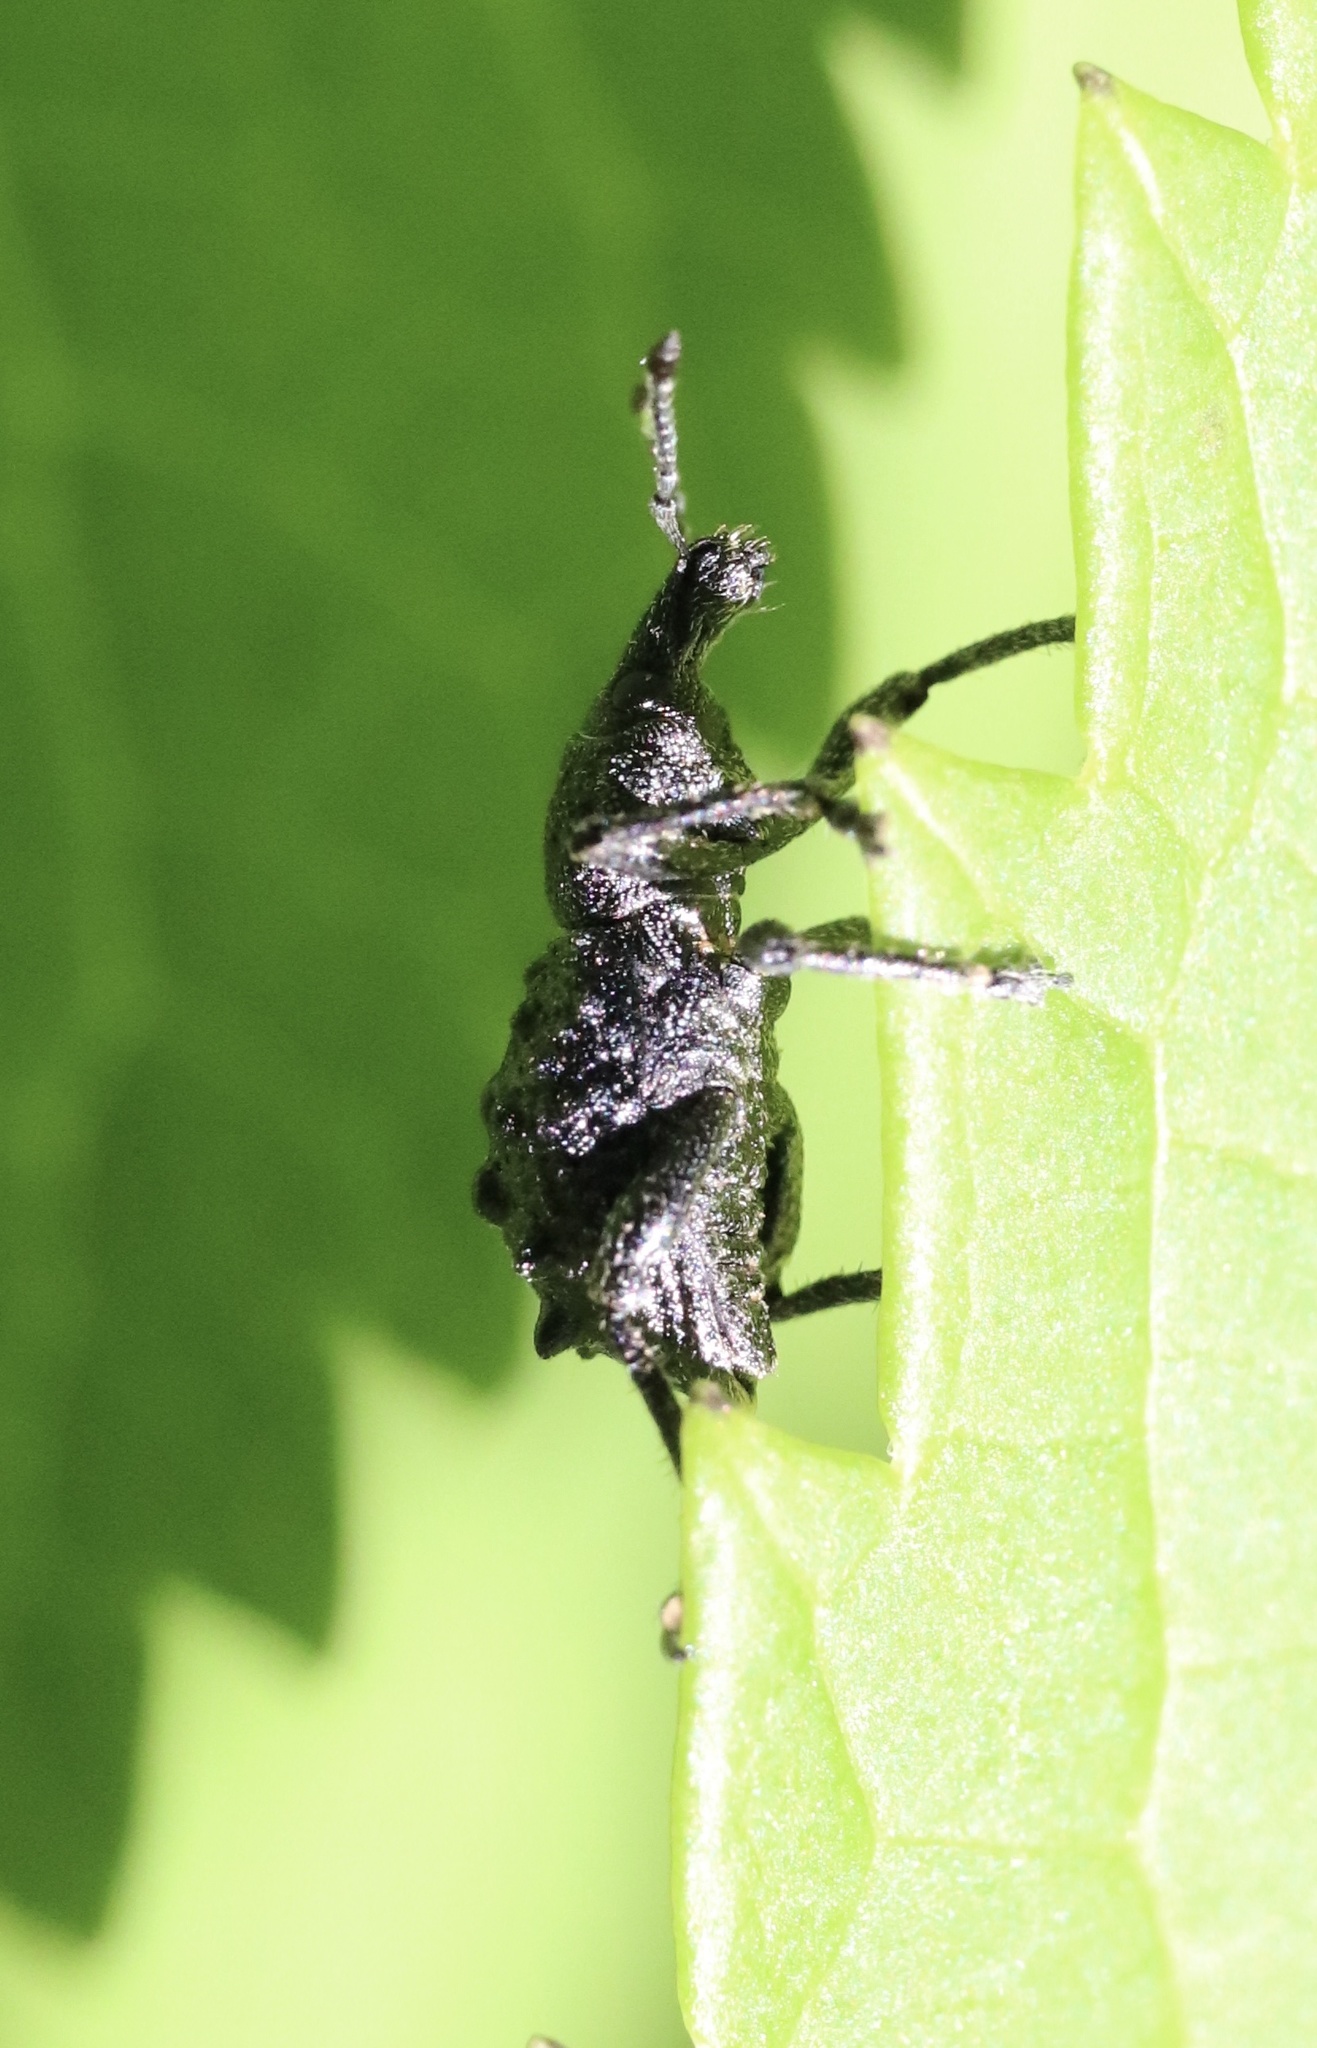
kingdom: Animalia
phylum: Arthropoda
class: Insecta
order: Coleoptera
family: Curculionidae
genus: Megalometis
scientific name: Megalometis spiniferus
